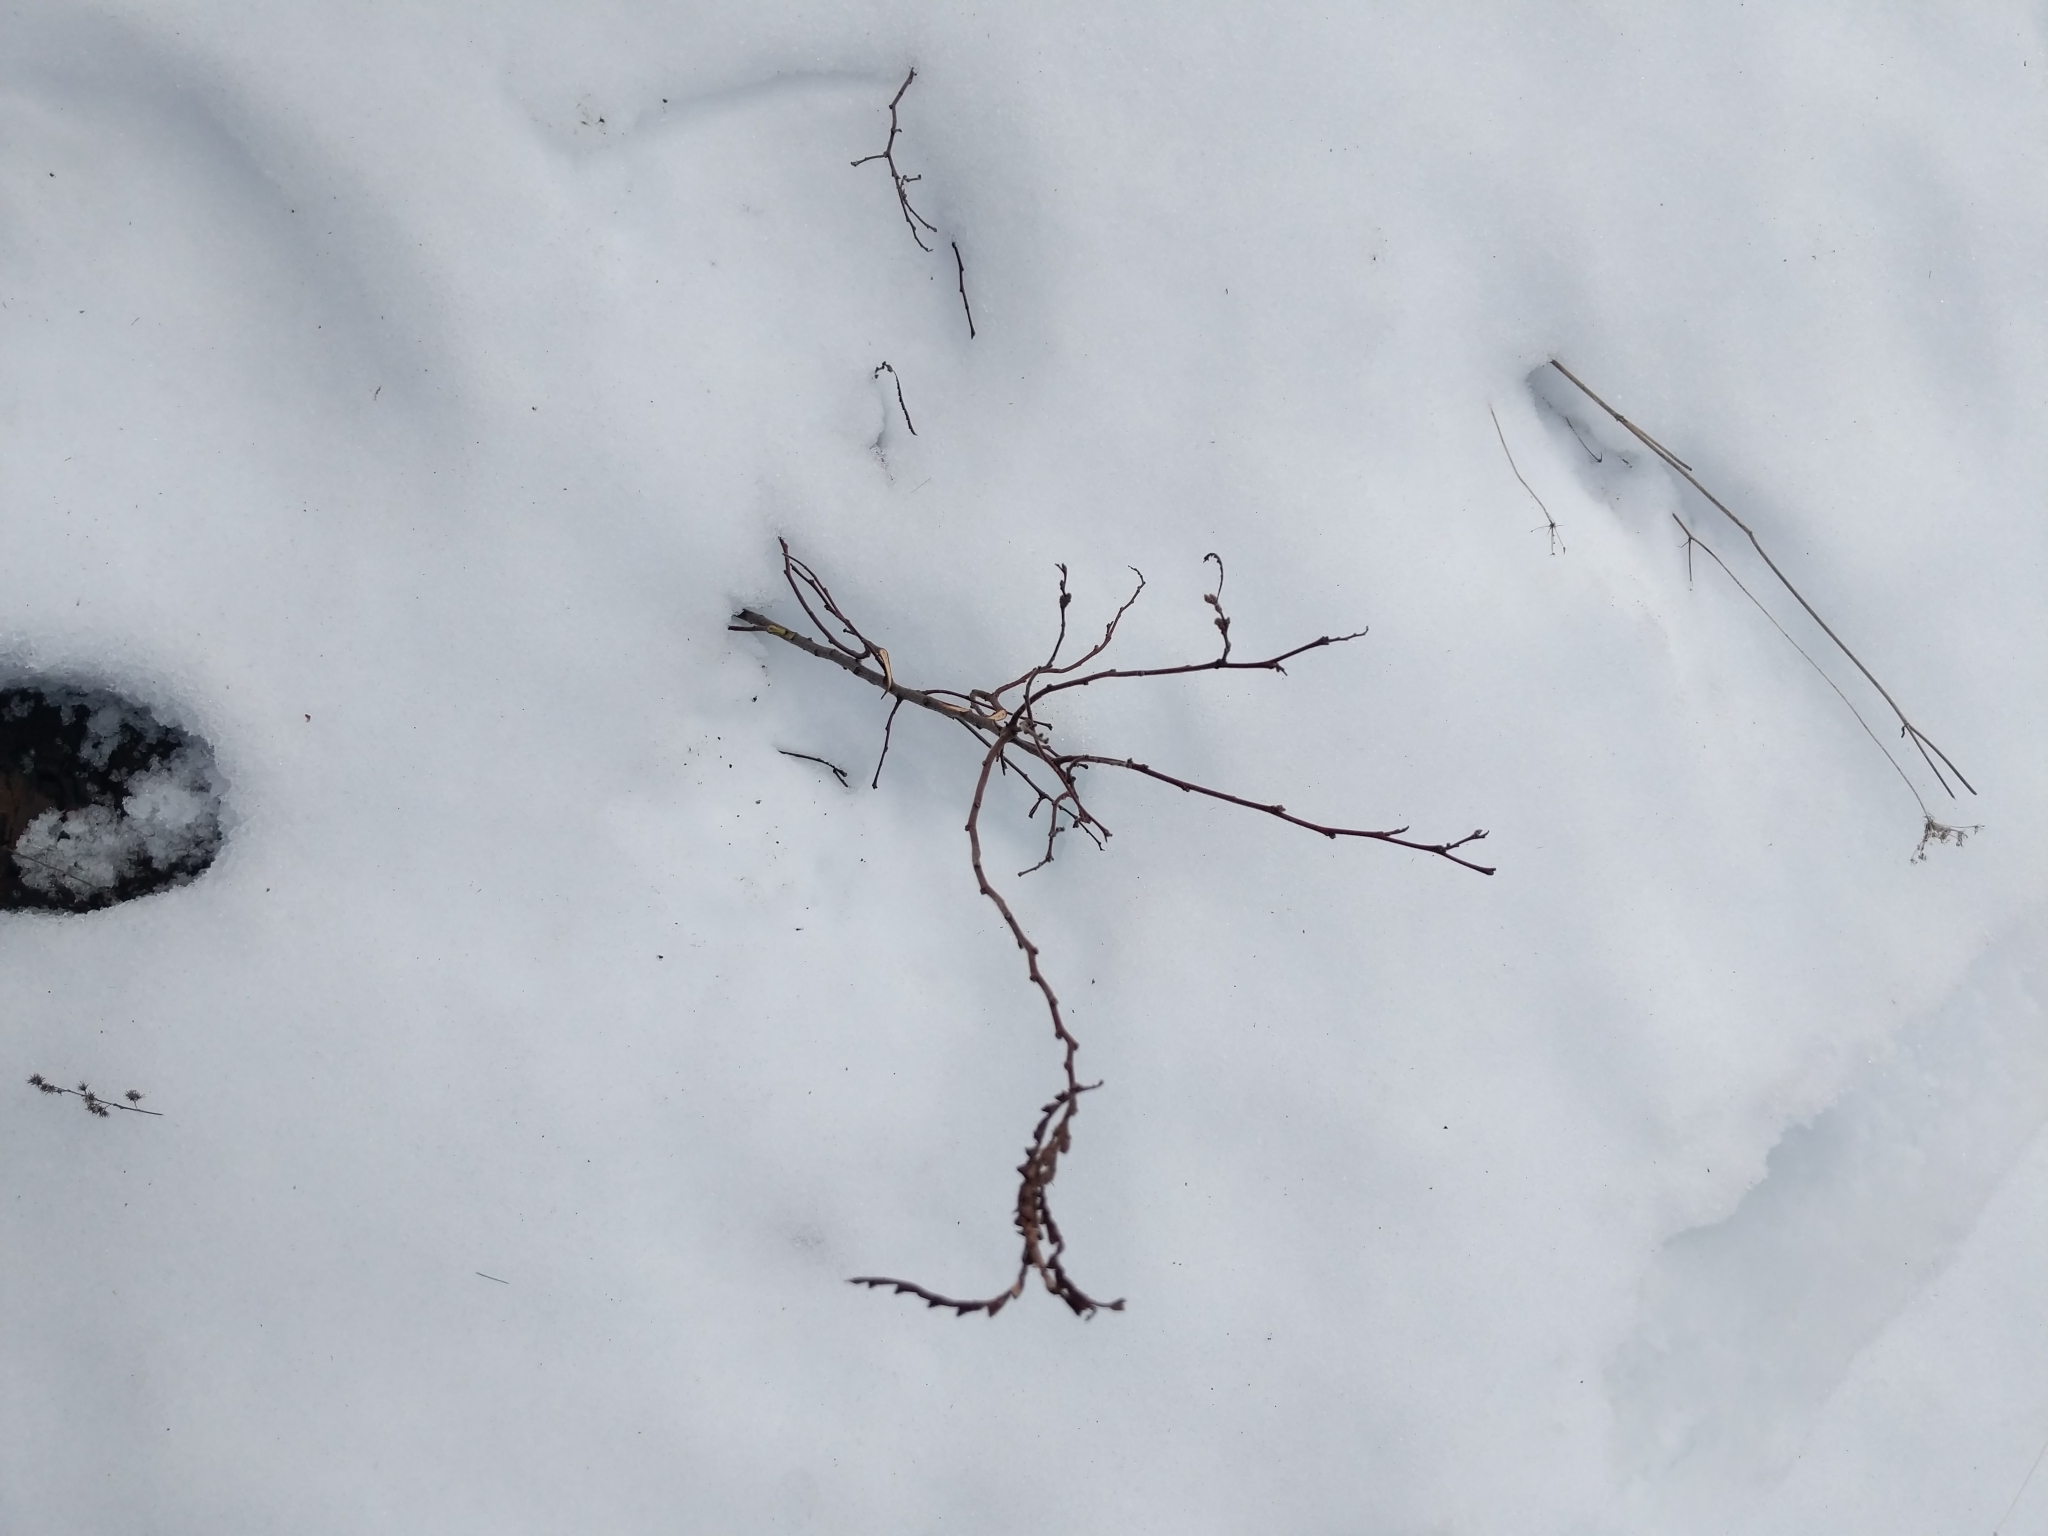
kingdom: Plantae
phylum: Tracheophyta
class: Magnoliopsida
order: Fagales
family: Myricaceae
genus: Comptonia
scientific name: Comptonia peregrina
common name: Sweet-fern
